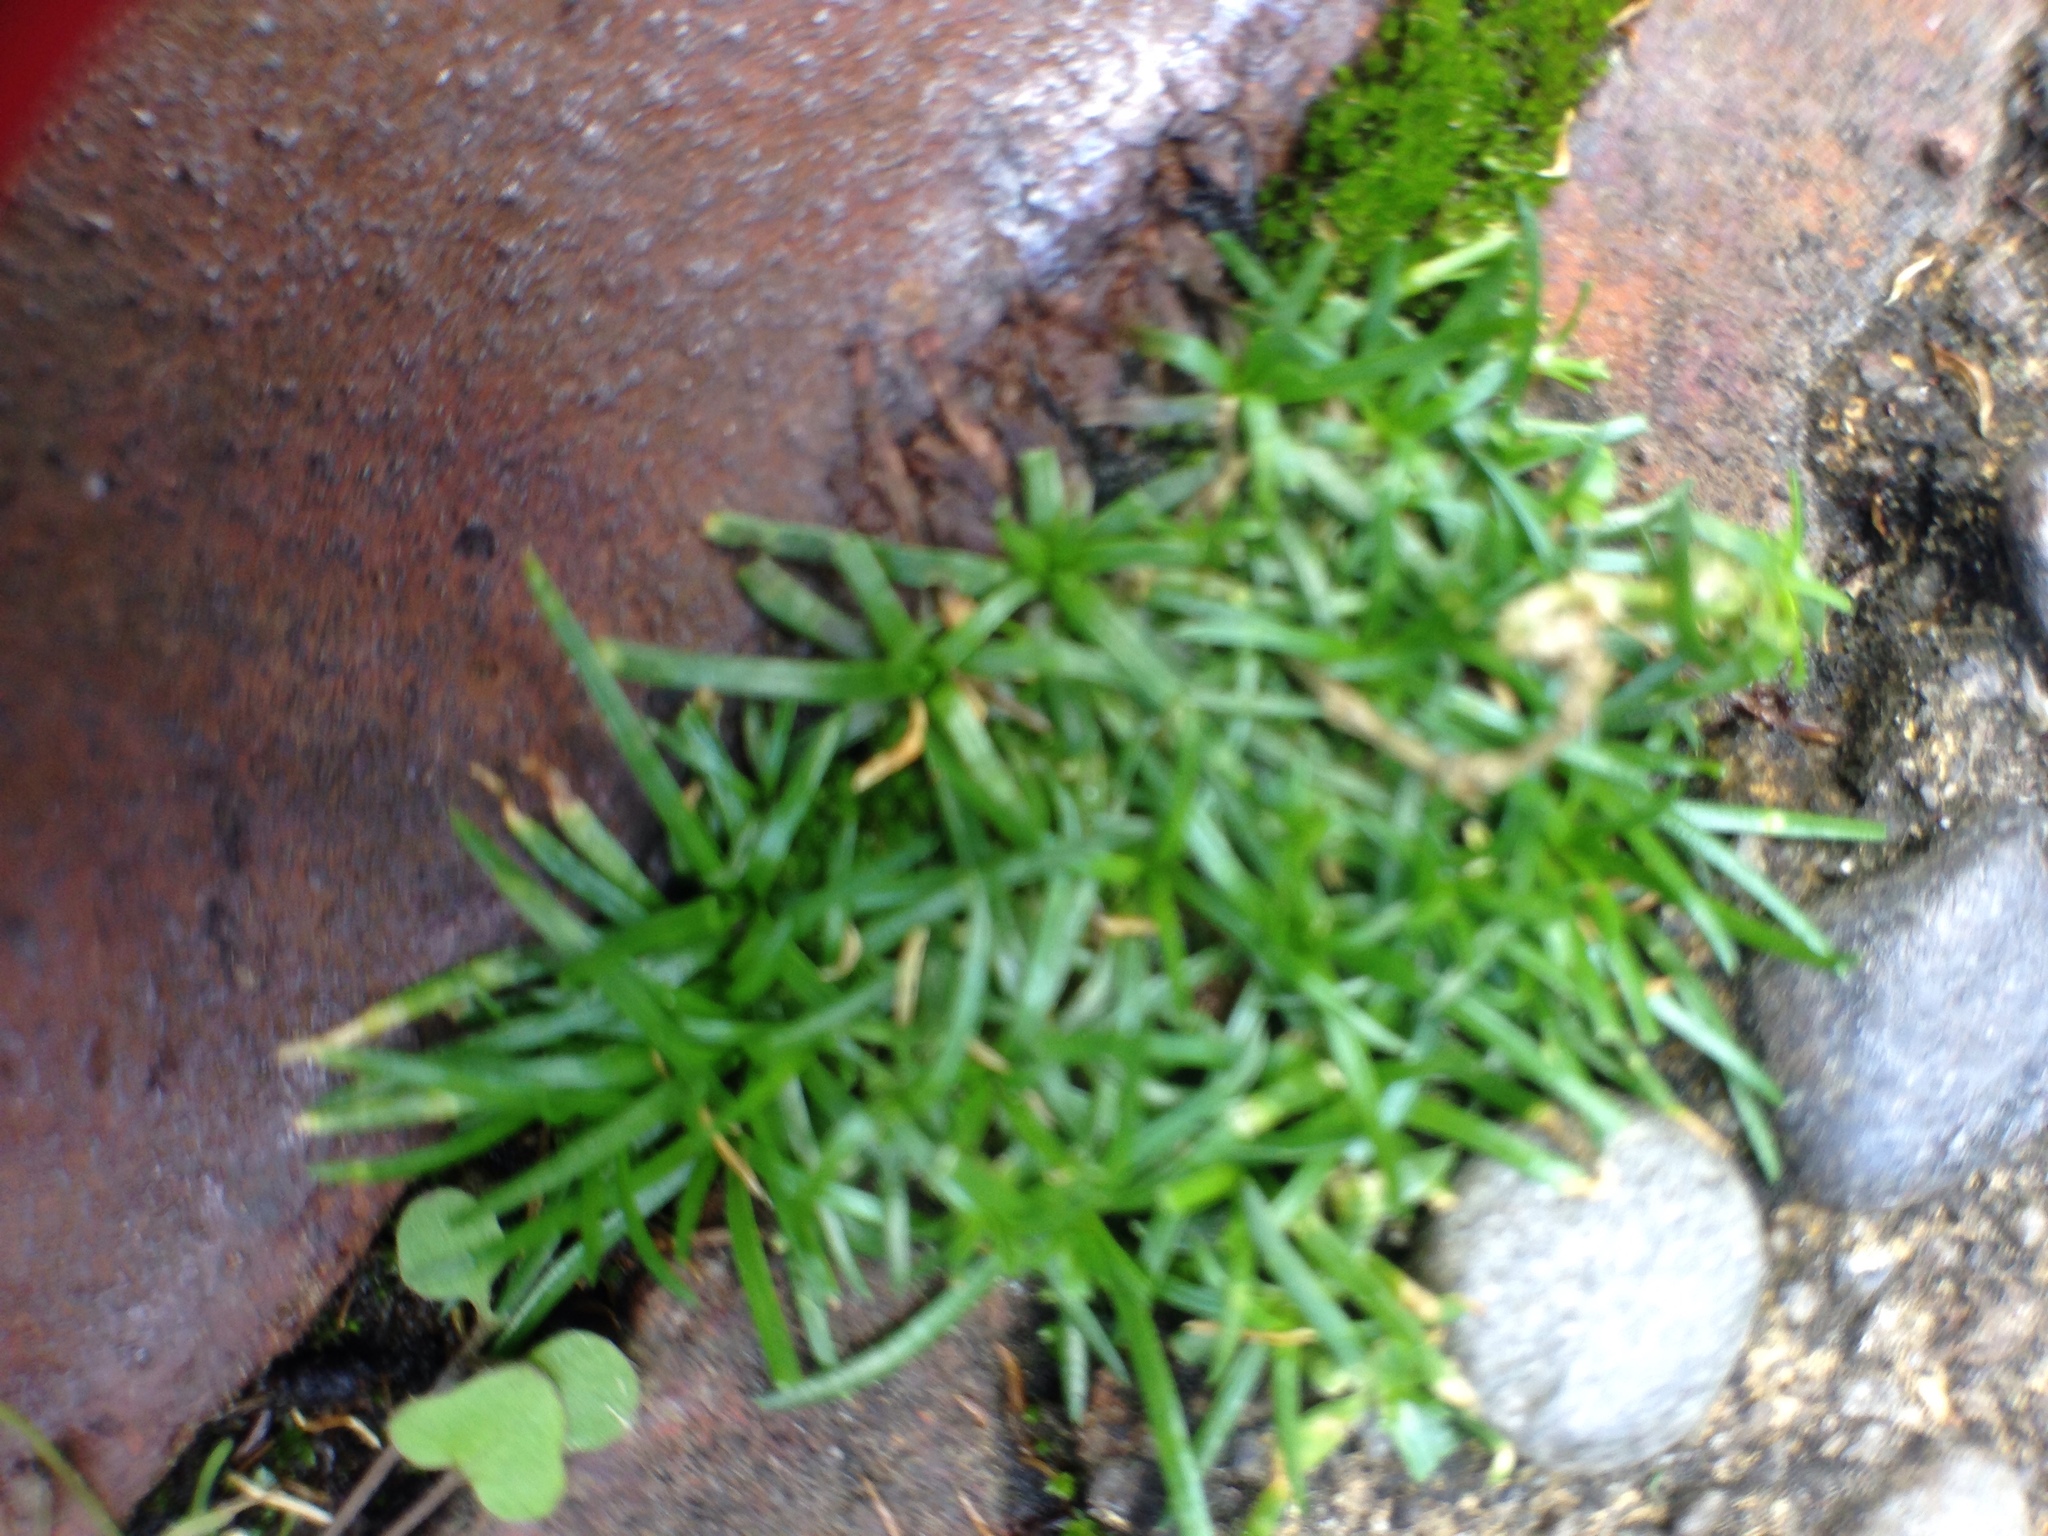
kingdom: Plantae
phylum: Tracheophyta
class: Magnoliopsida
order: Caryophyllales
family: Caryophyllaceae
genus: Sagina
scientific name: Sagina procumbens
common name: Procumbent pearlwort
